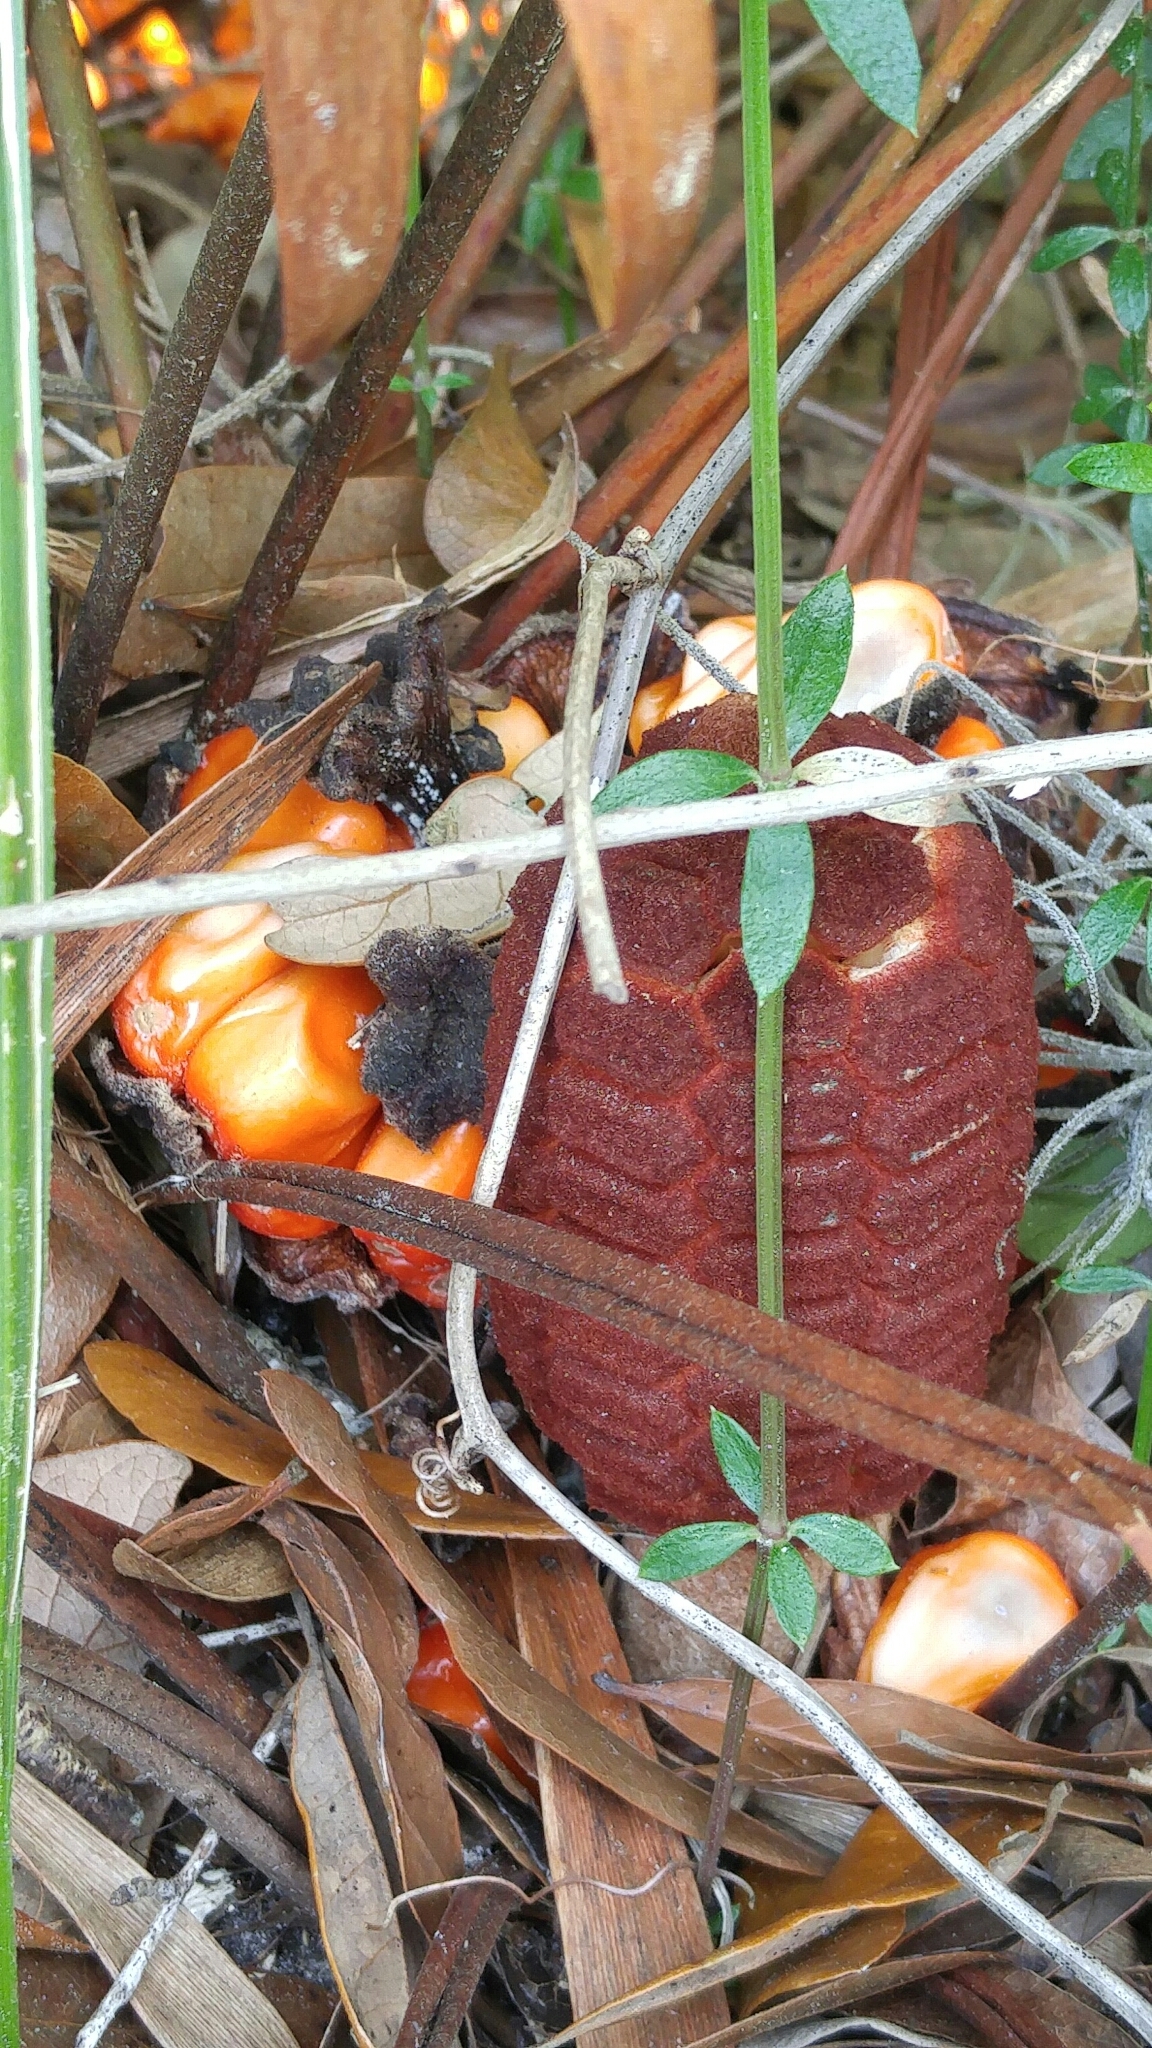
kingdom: Plantae
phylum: Tracheophyta
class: Cycadopsida
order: Cycadales
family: Zamiaceae
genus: Zamia
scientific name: Zamia integrifolia
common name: Florida arrowroot
